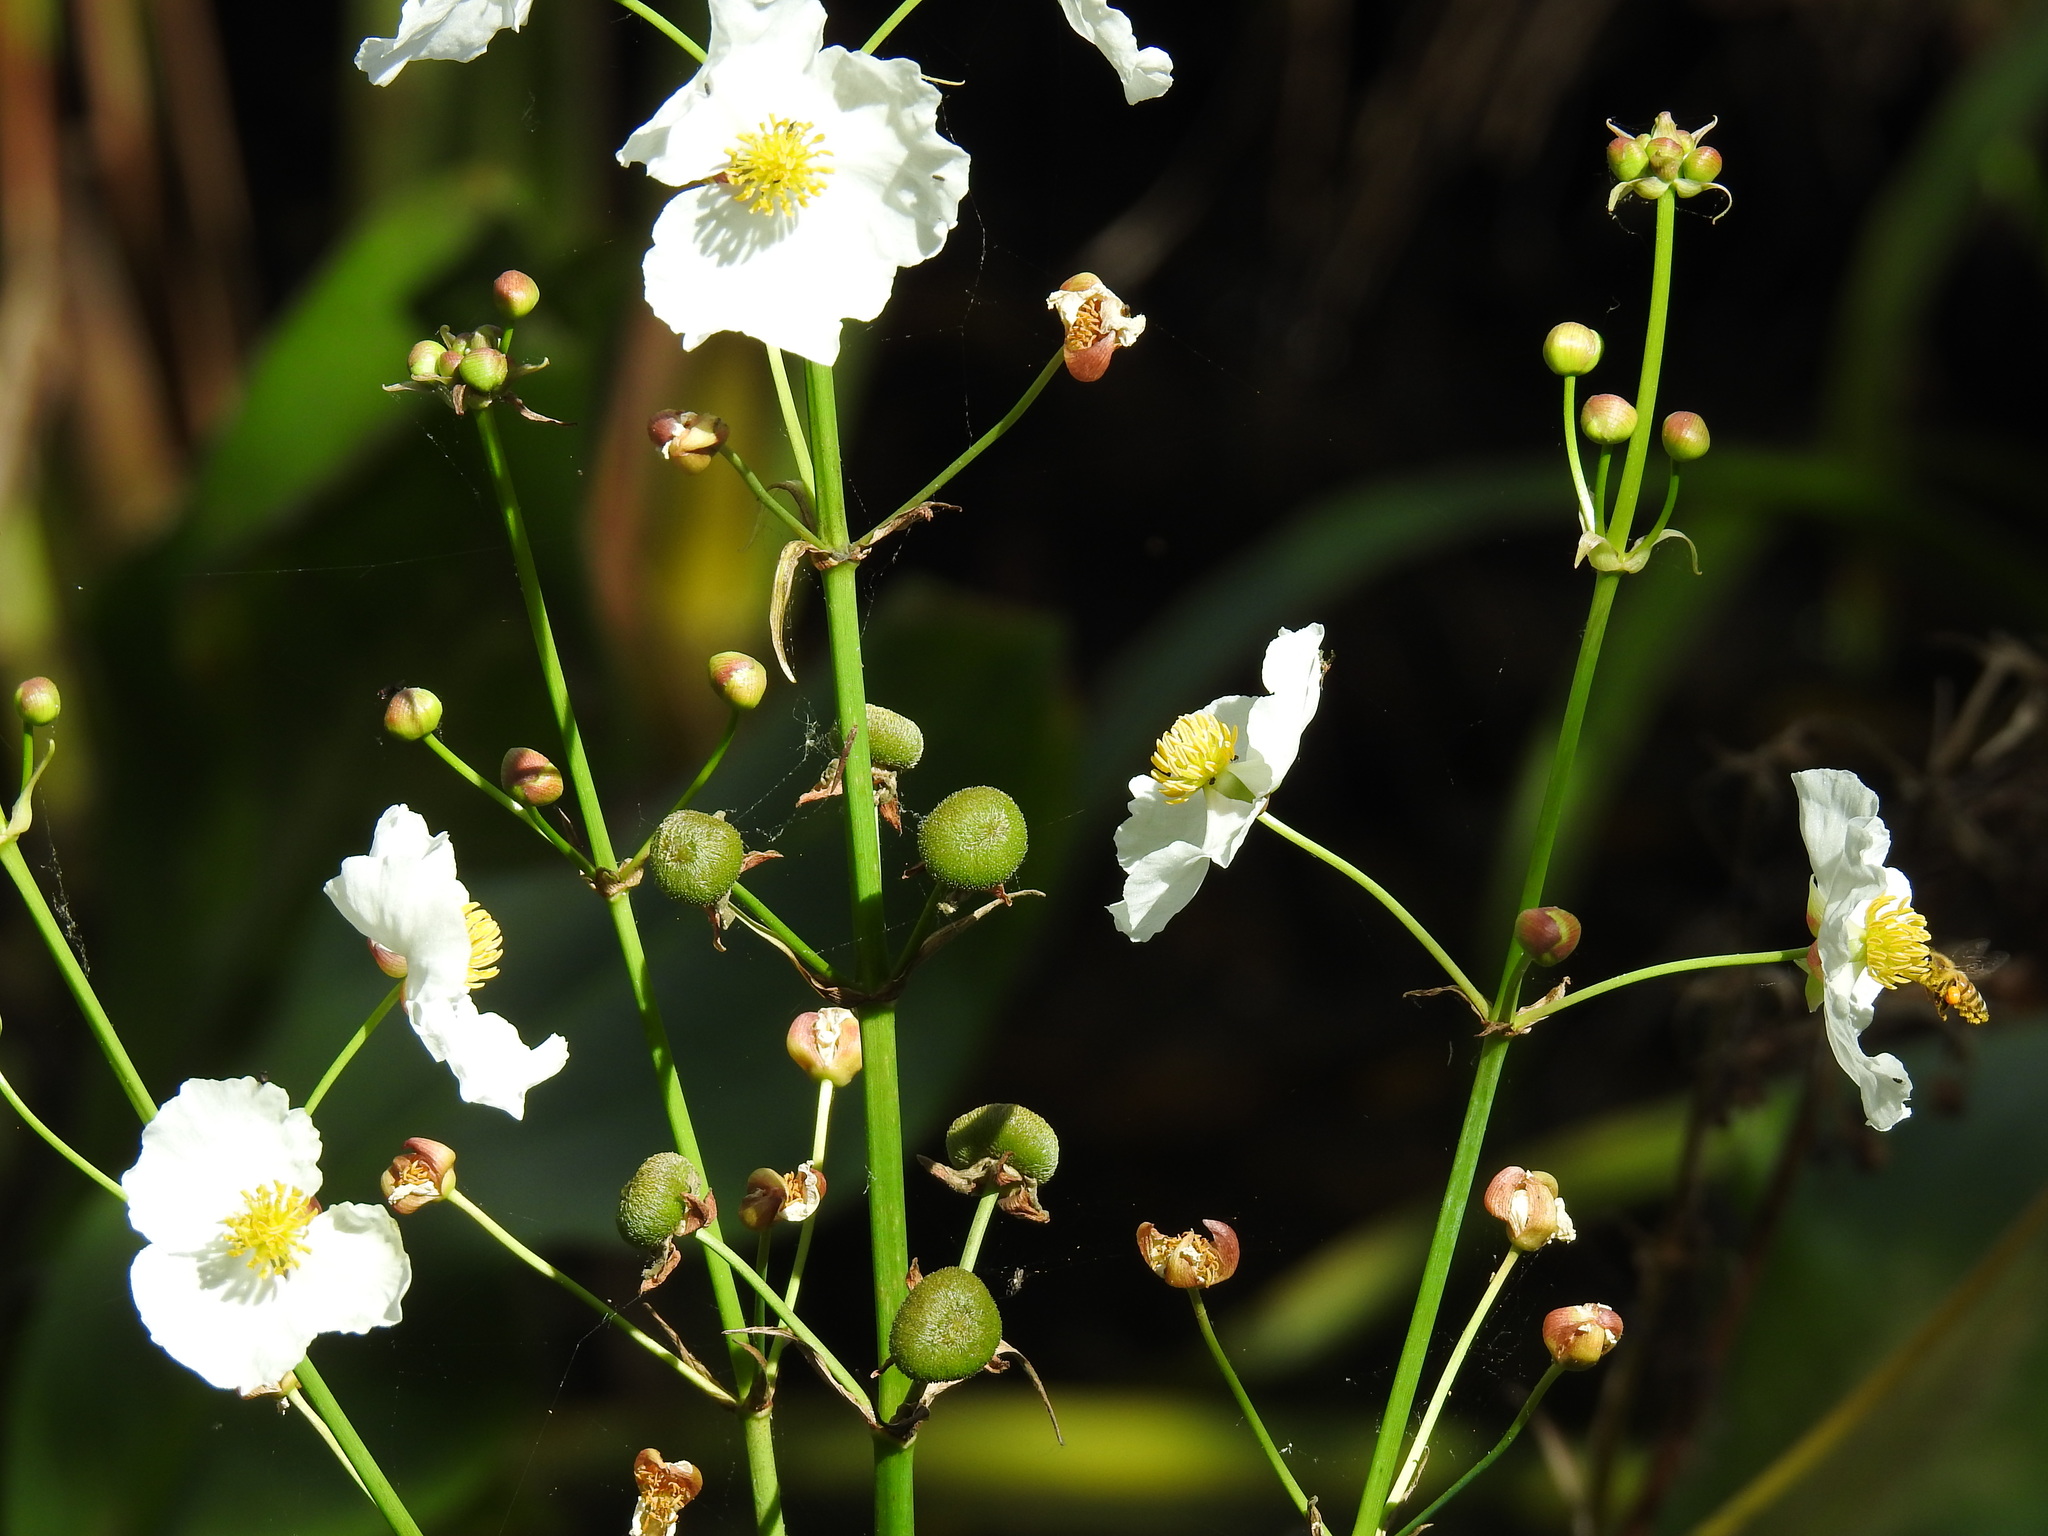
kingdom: Plantae
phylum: Tracheophyta
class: Liliopsida
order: Alismatales
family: Alismataceae
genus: Sagittaria
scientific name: Sagittaria lancifolia
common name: Lance-leaf arrowhead
